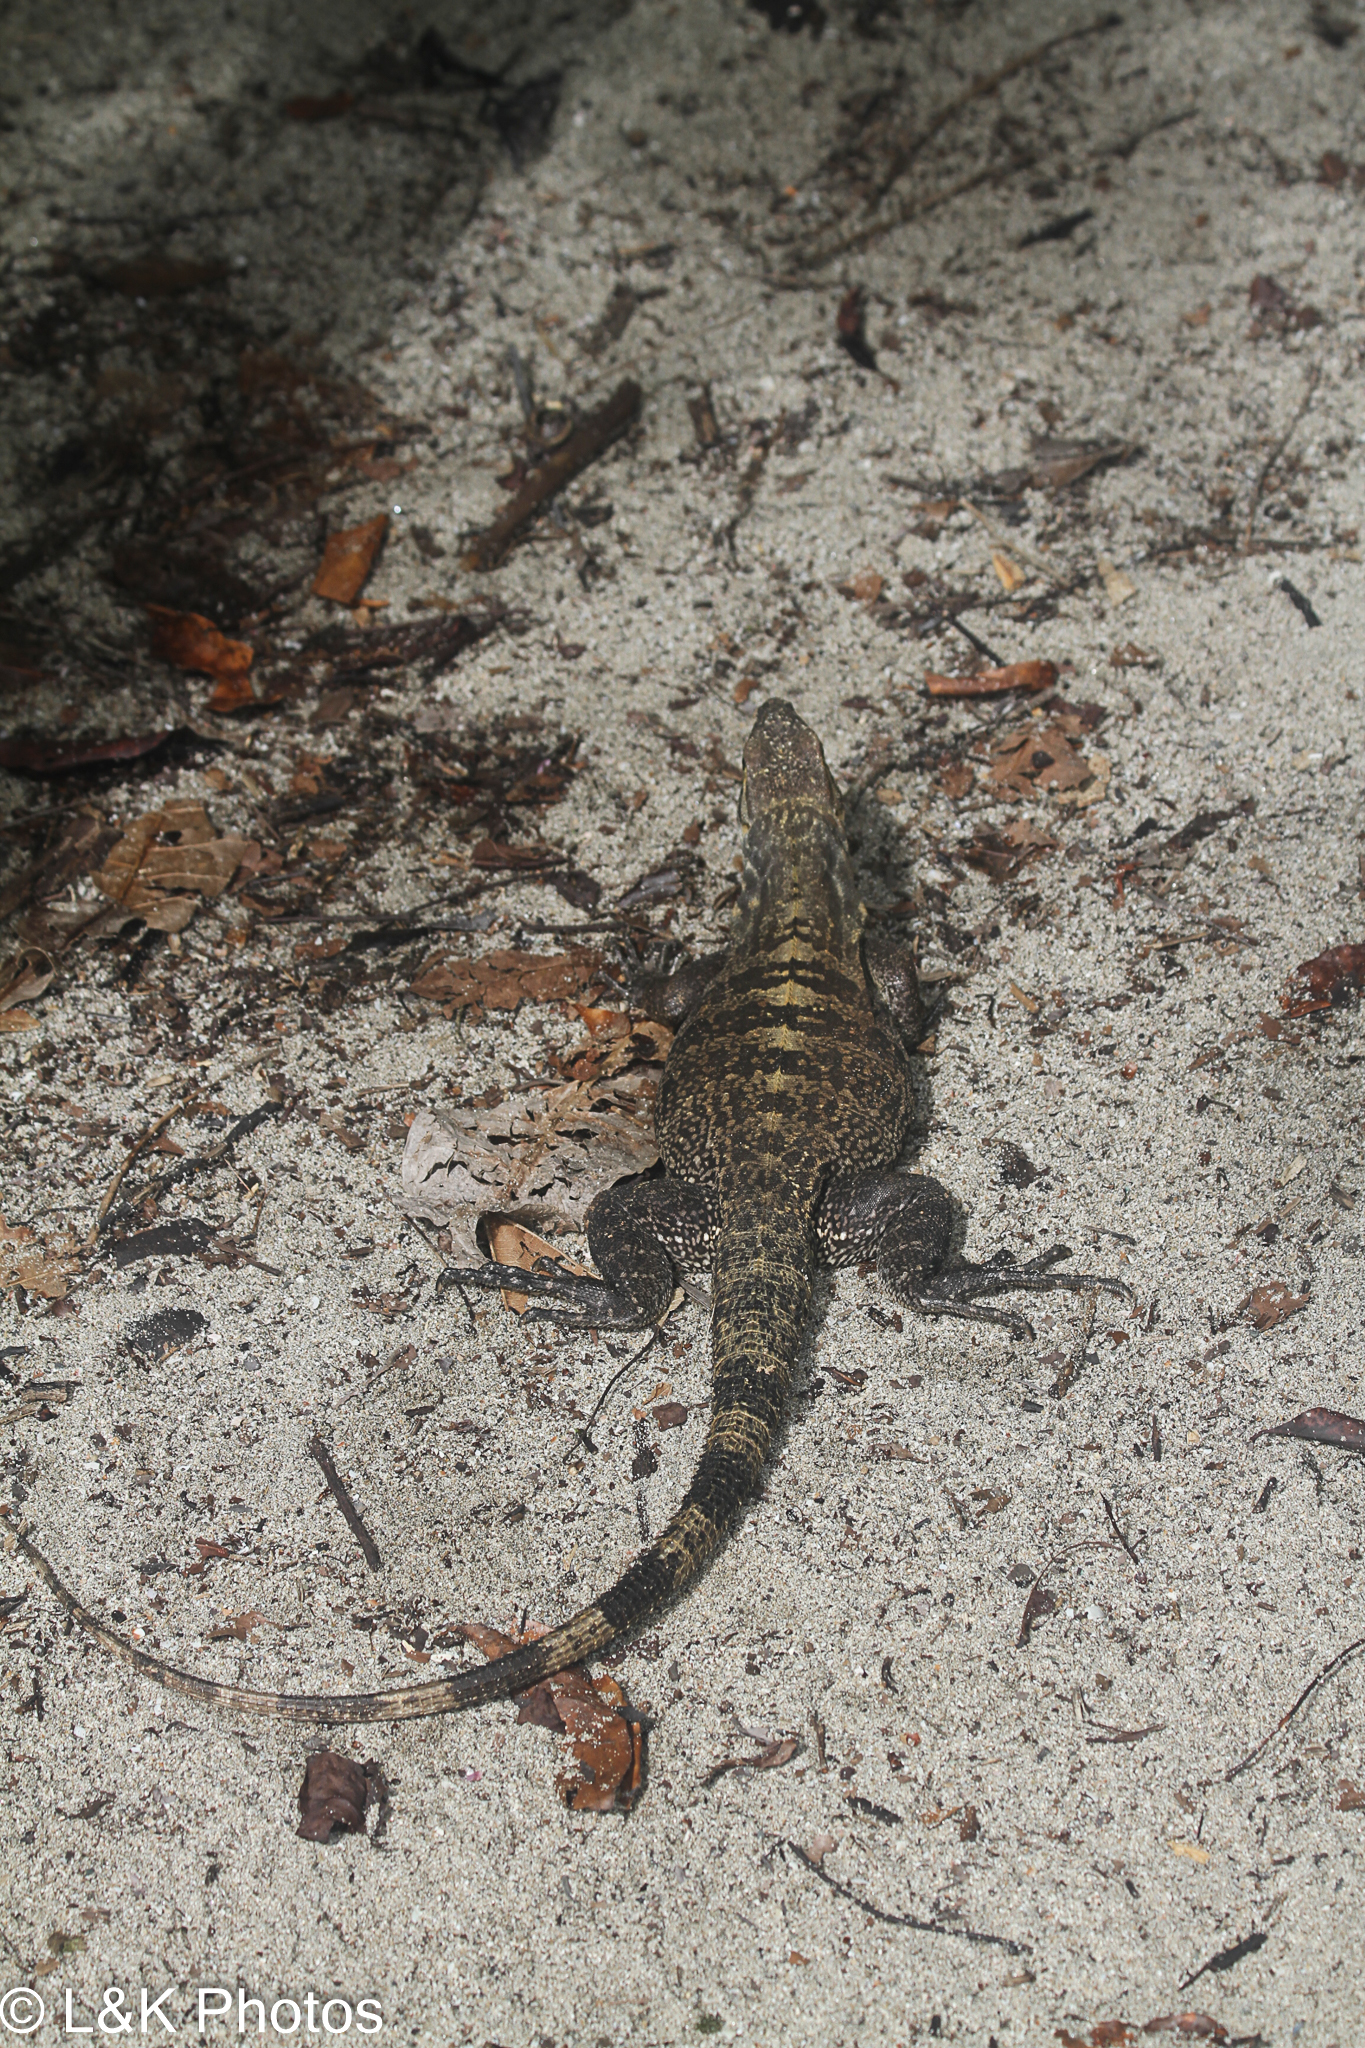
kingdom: Animalia
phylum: Chordata
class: Squamata
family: Iguanidae
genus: Ctenosaura
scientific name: Ctenosaura similis
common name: Black spiny-tailed iguana
